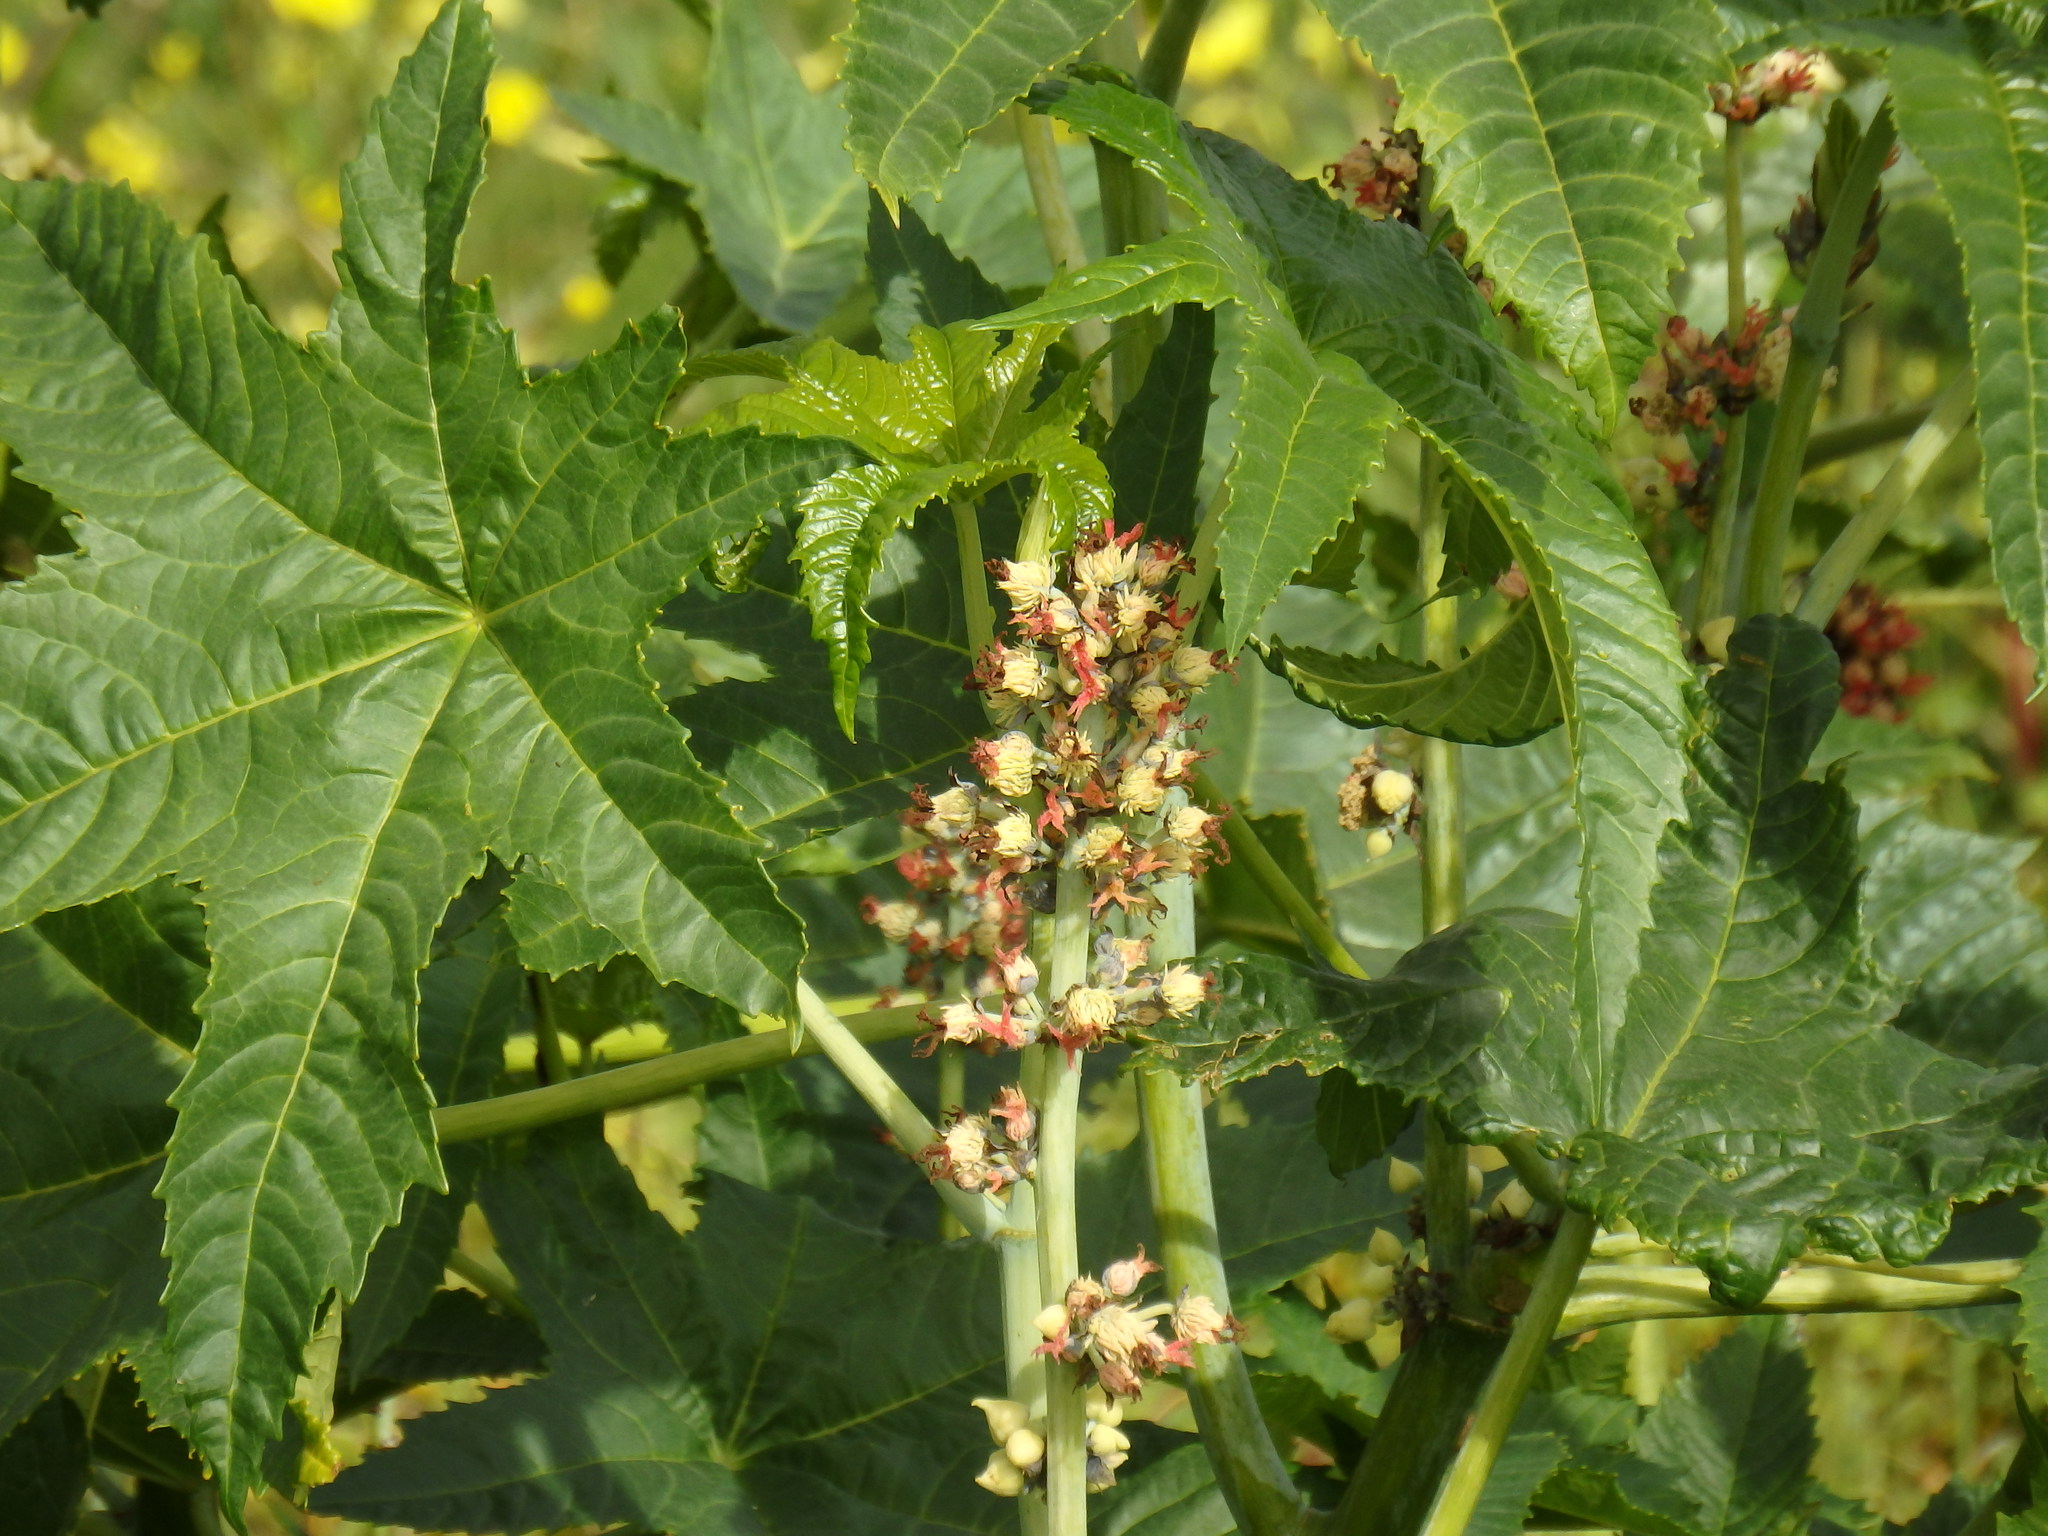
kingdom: Plantae
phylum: Tracheophyta
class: Magnoliopsida
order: Malpighiales
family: Euphorbiaceae
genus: Ricinus
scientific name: Ricinus communis
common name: Castor-oil-plant
